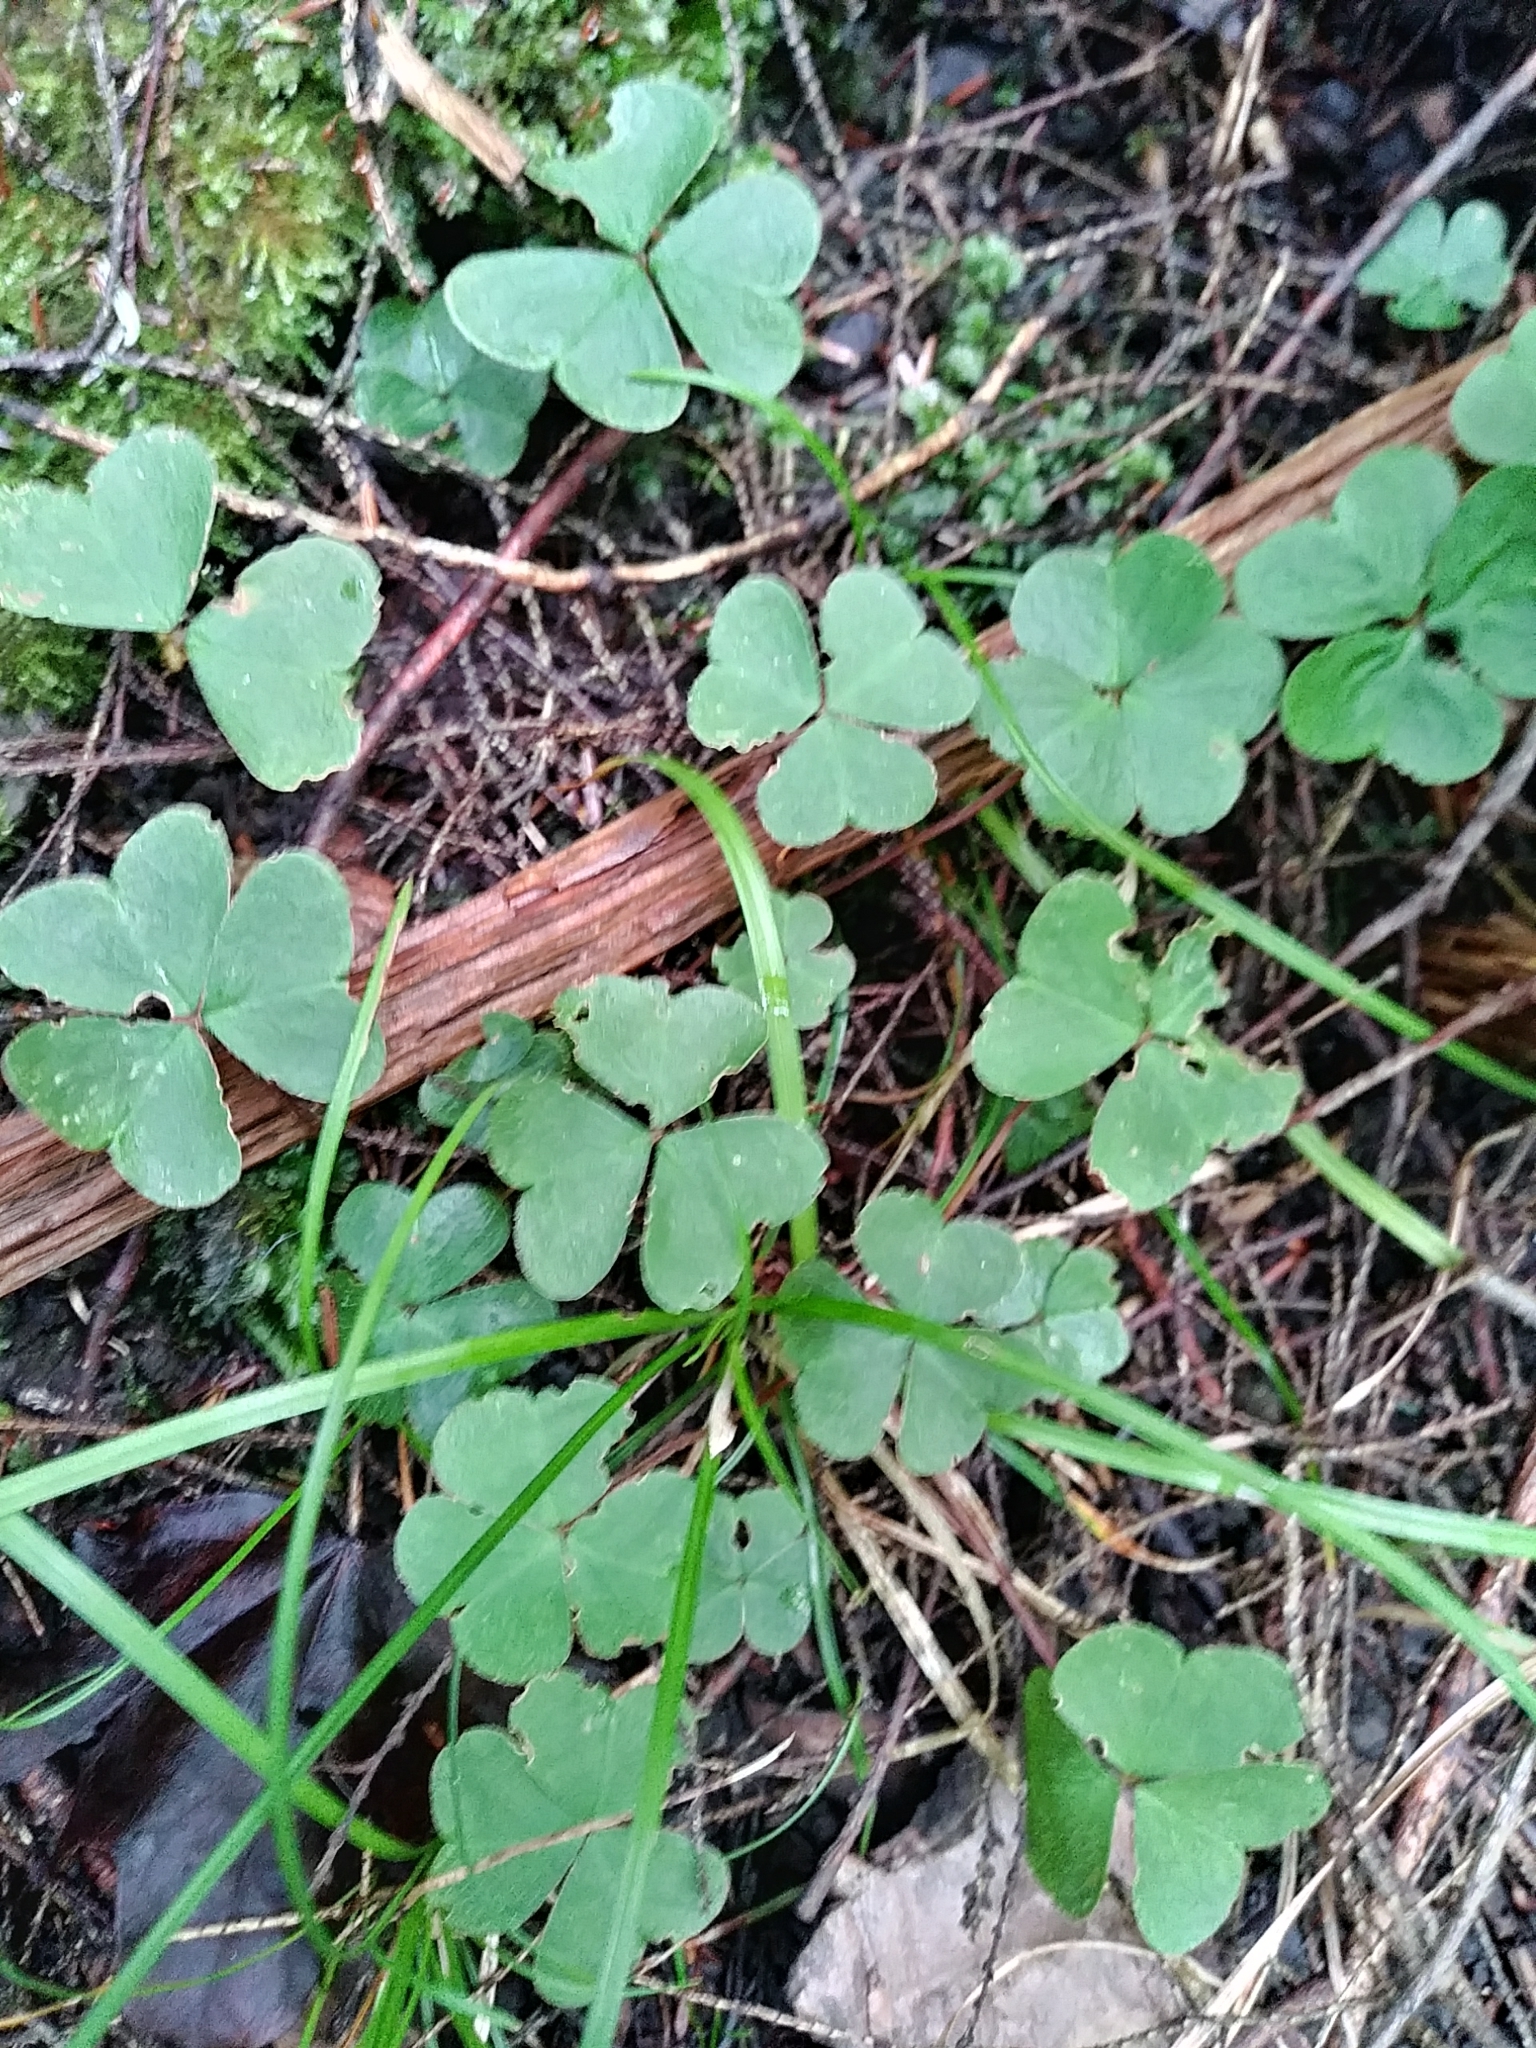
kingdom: Plantae
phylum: Tracheophyta
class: Magnoliopsida
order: Oxalidales
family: Oxalidaceae
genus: Oxalis
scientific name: Oxalis montana
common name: American wood-sorrel
